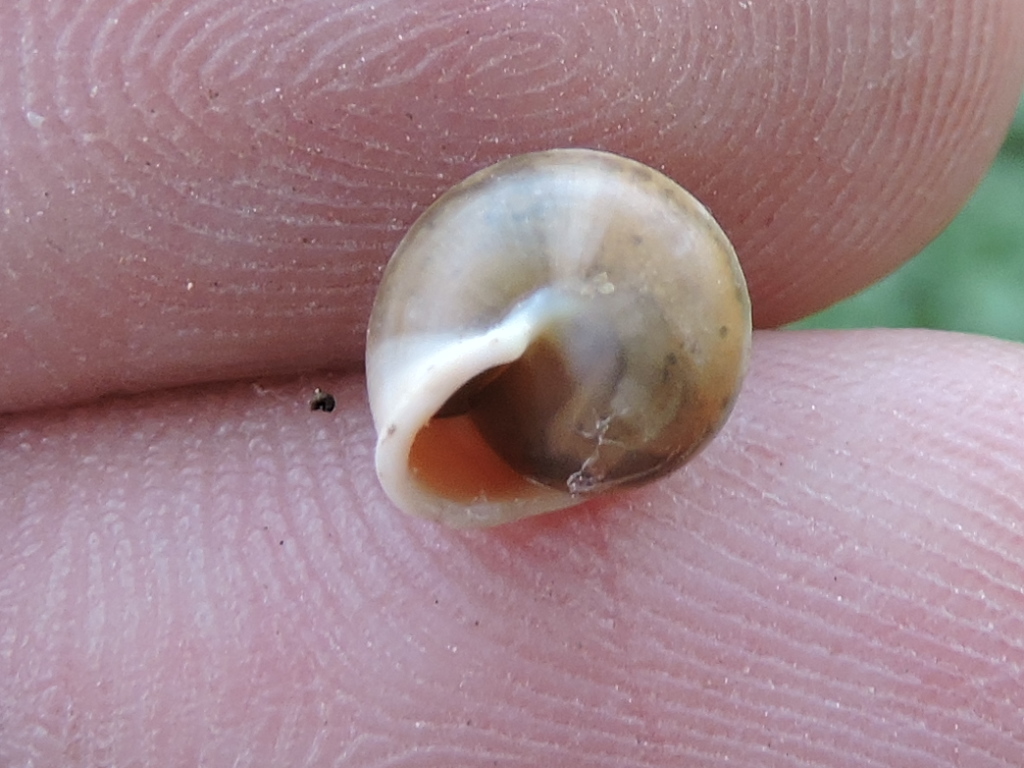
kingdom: Animalia
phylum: Mollusca
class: Gastropoda
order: Cycloneritida
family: Helicinidae
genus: Helicina
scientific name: Helicina orbiculata
